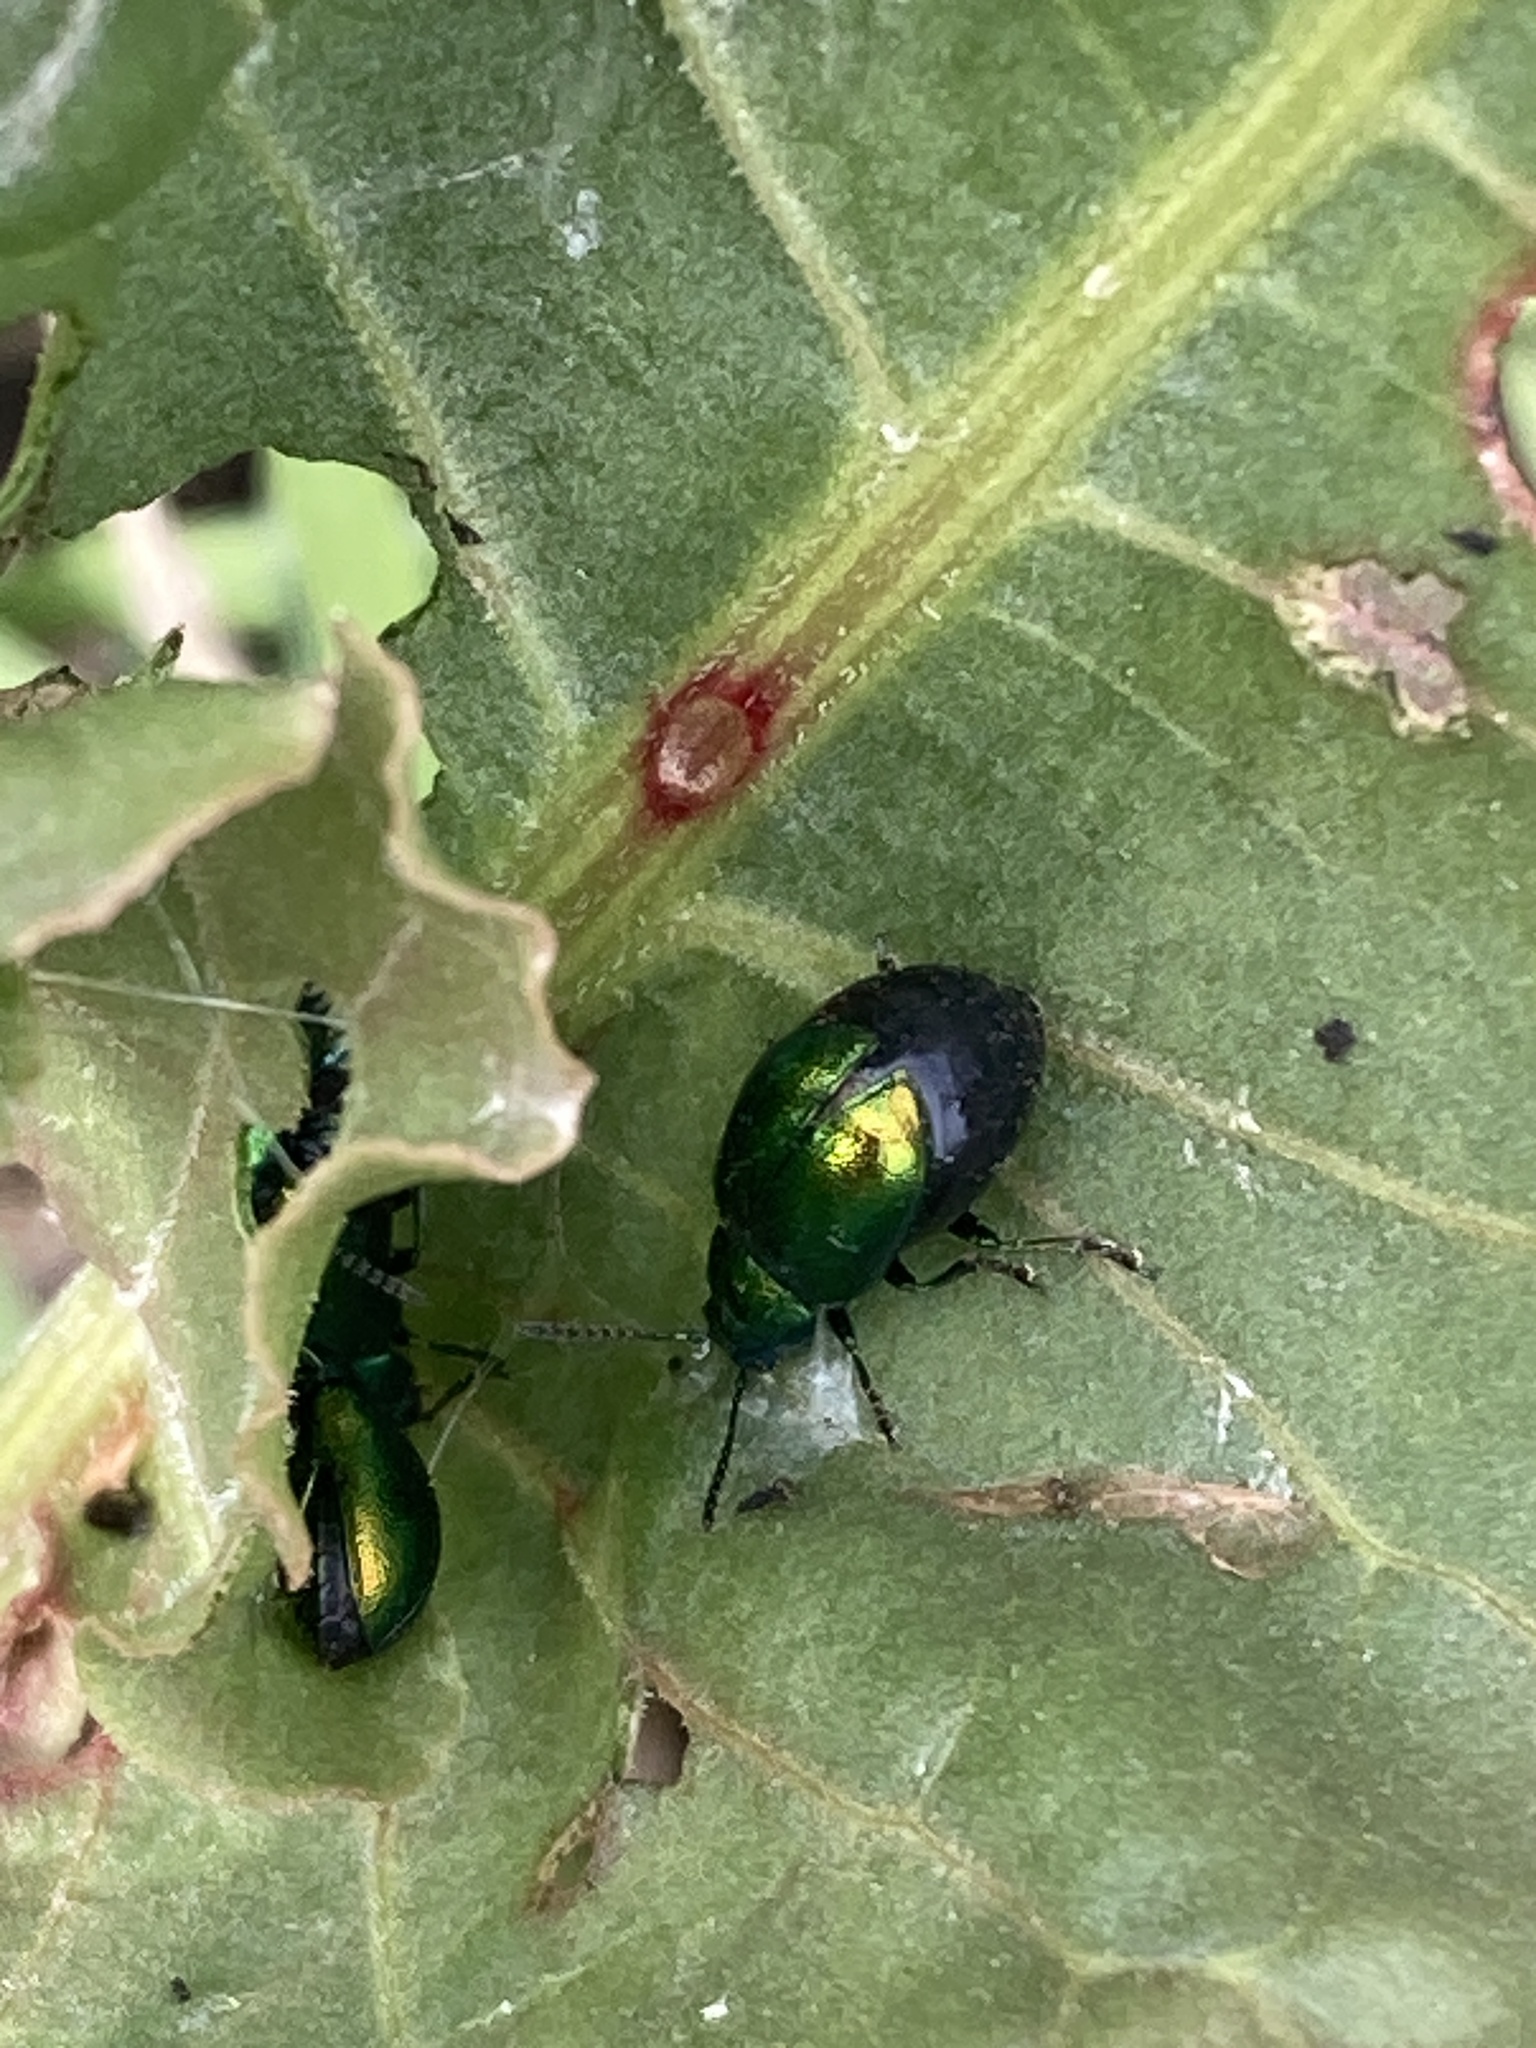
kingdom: Animalia
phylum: Arthropoda
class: Insecta
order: Coleoptera
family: Chrysomelidae
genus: Gastrophysa
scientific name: Gastrophysa viridula
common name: Green dock beetle
